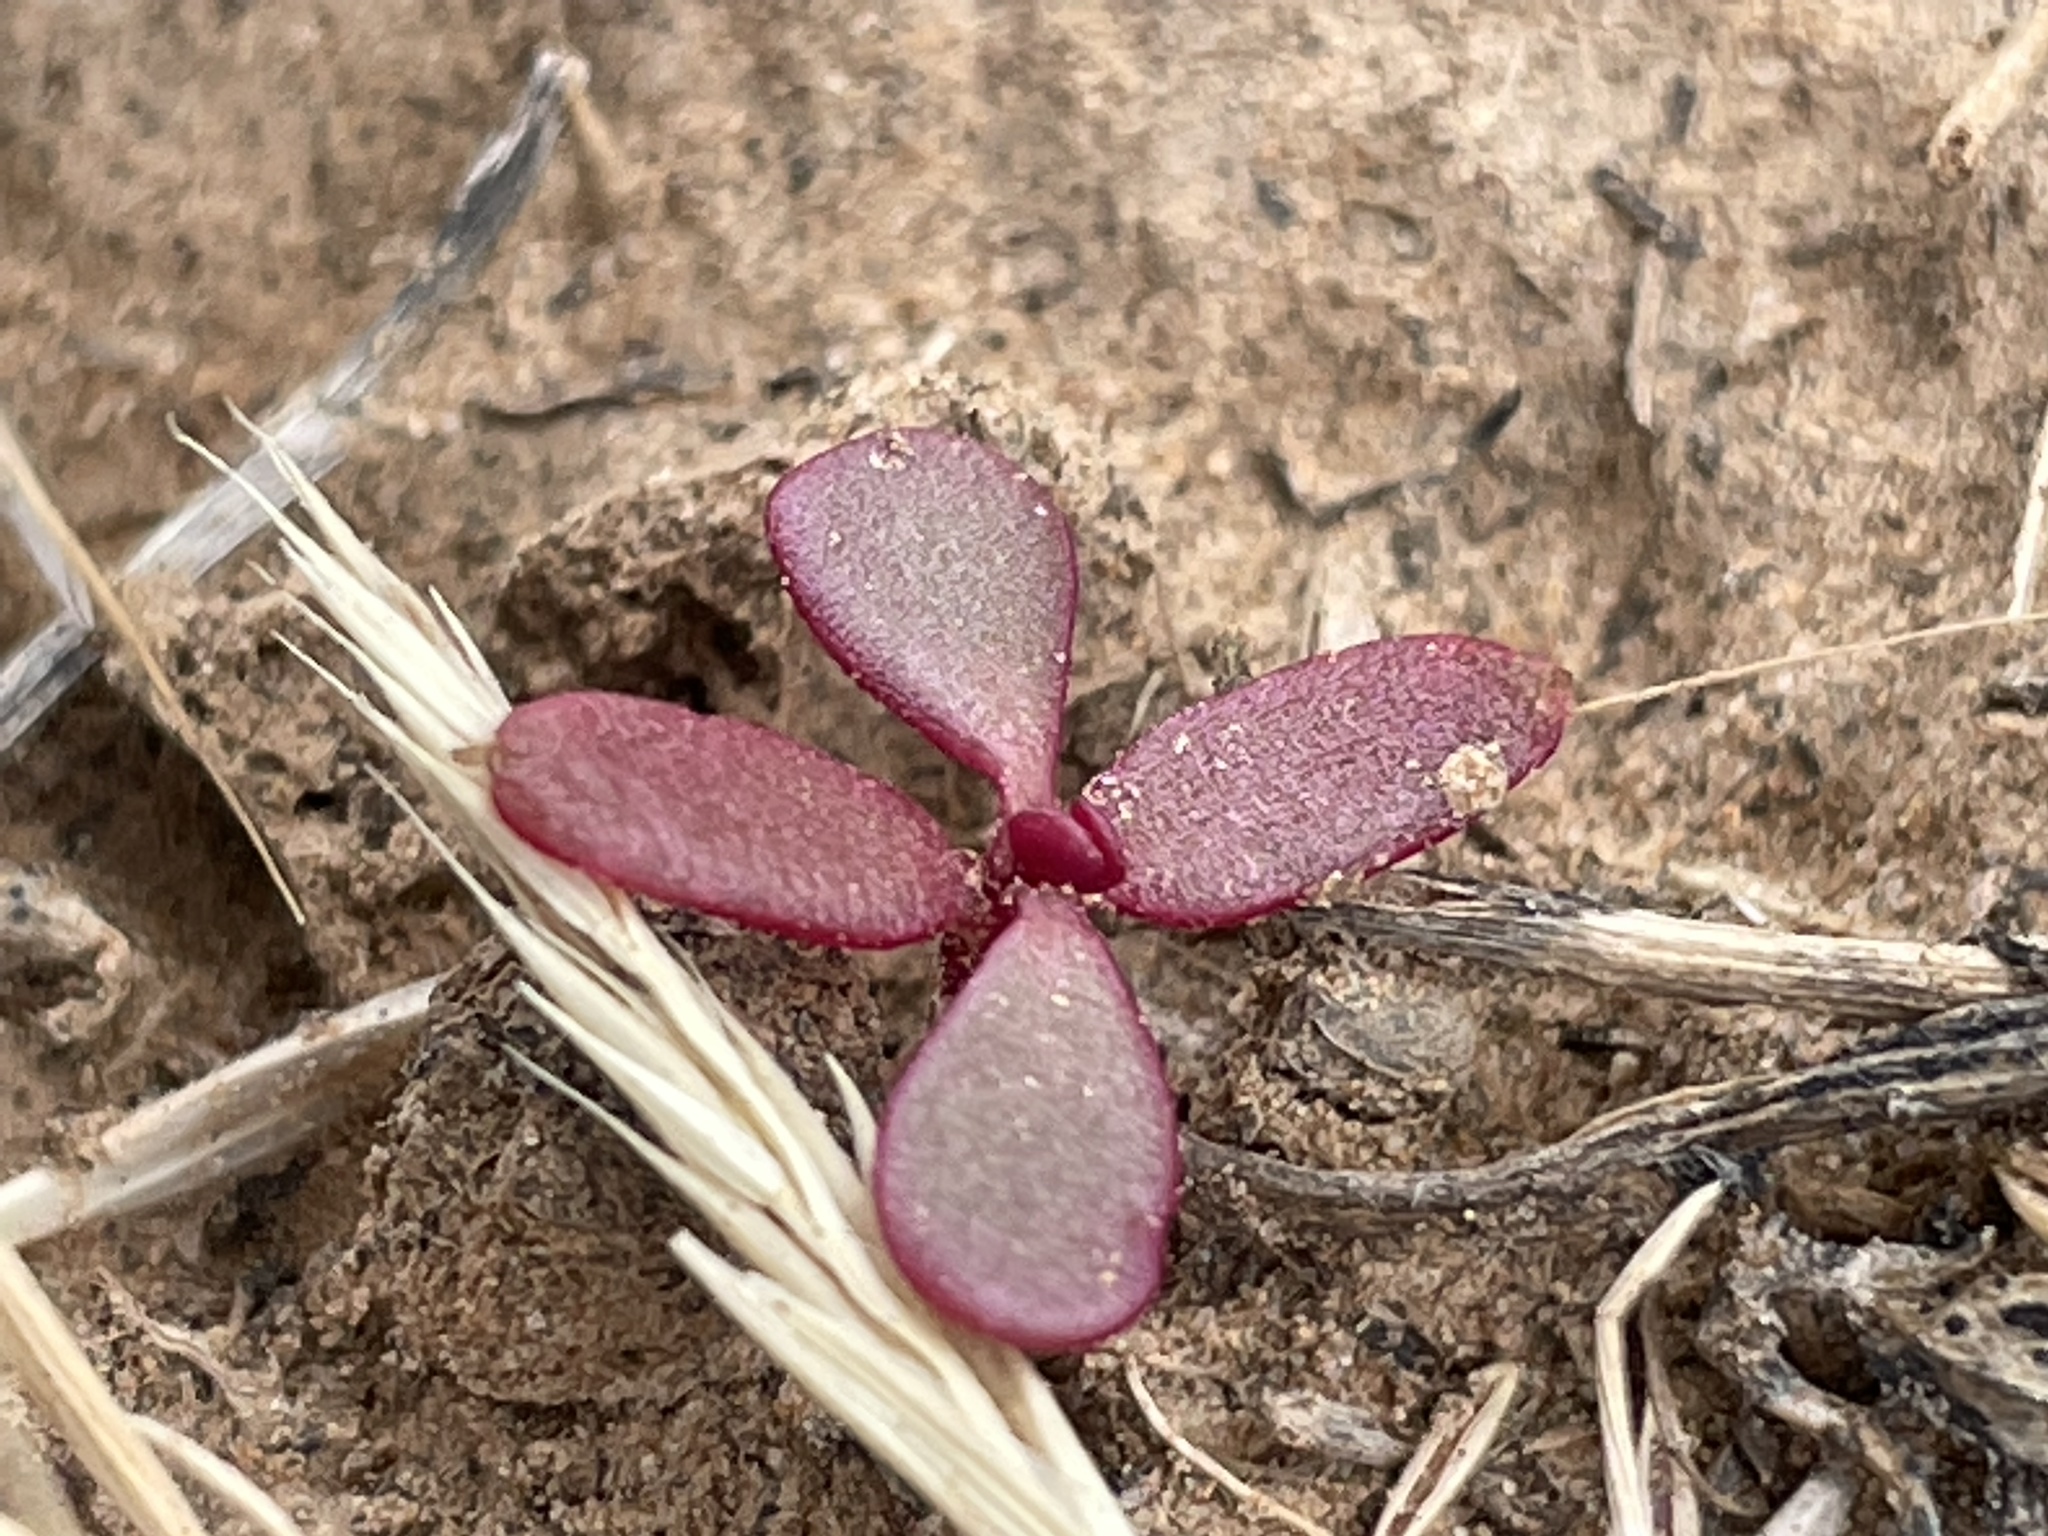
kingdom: Plantae
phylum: Tracheophyta
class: Magnoliopsida
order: Caryophyllales
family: Portulacaceae
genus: Portulaca
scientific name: Portulaca oleracea
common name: Common purslane
